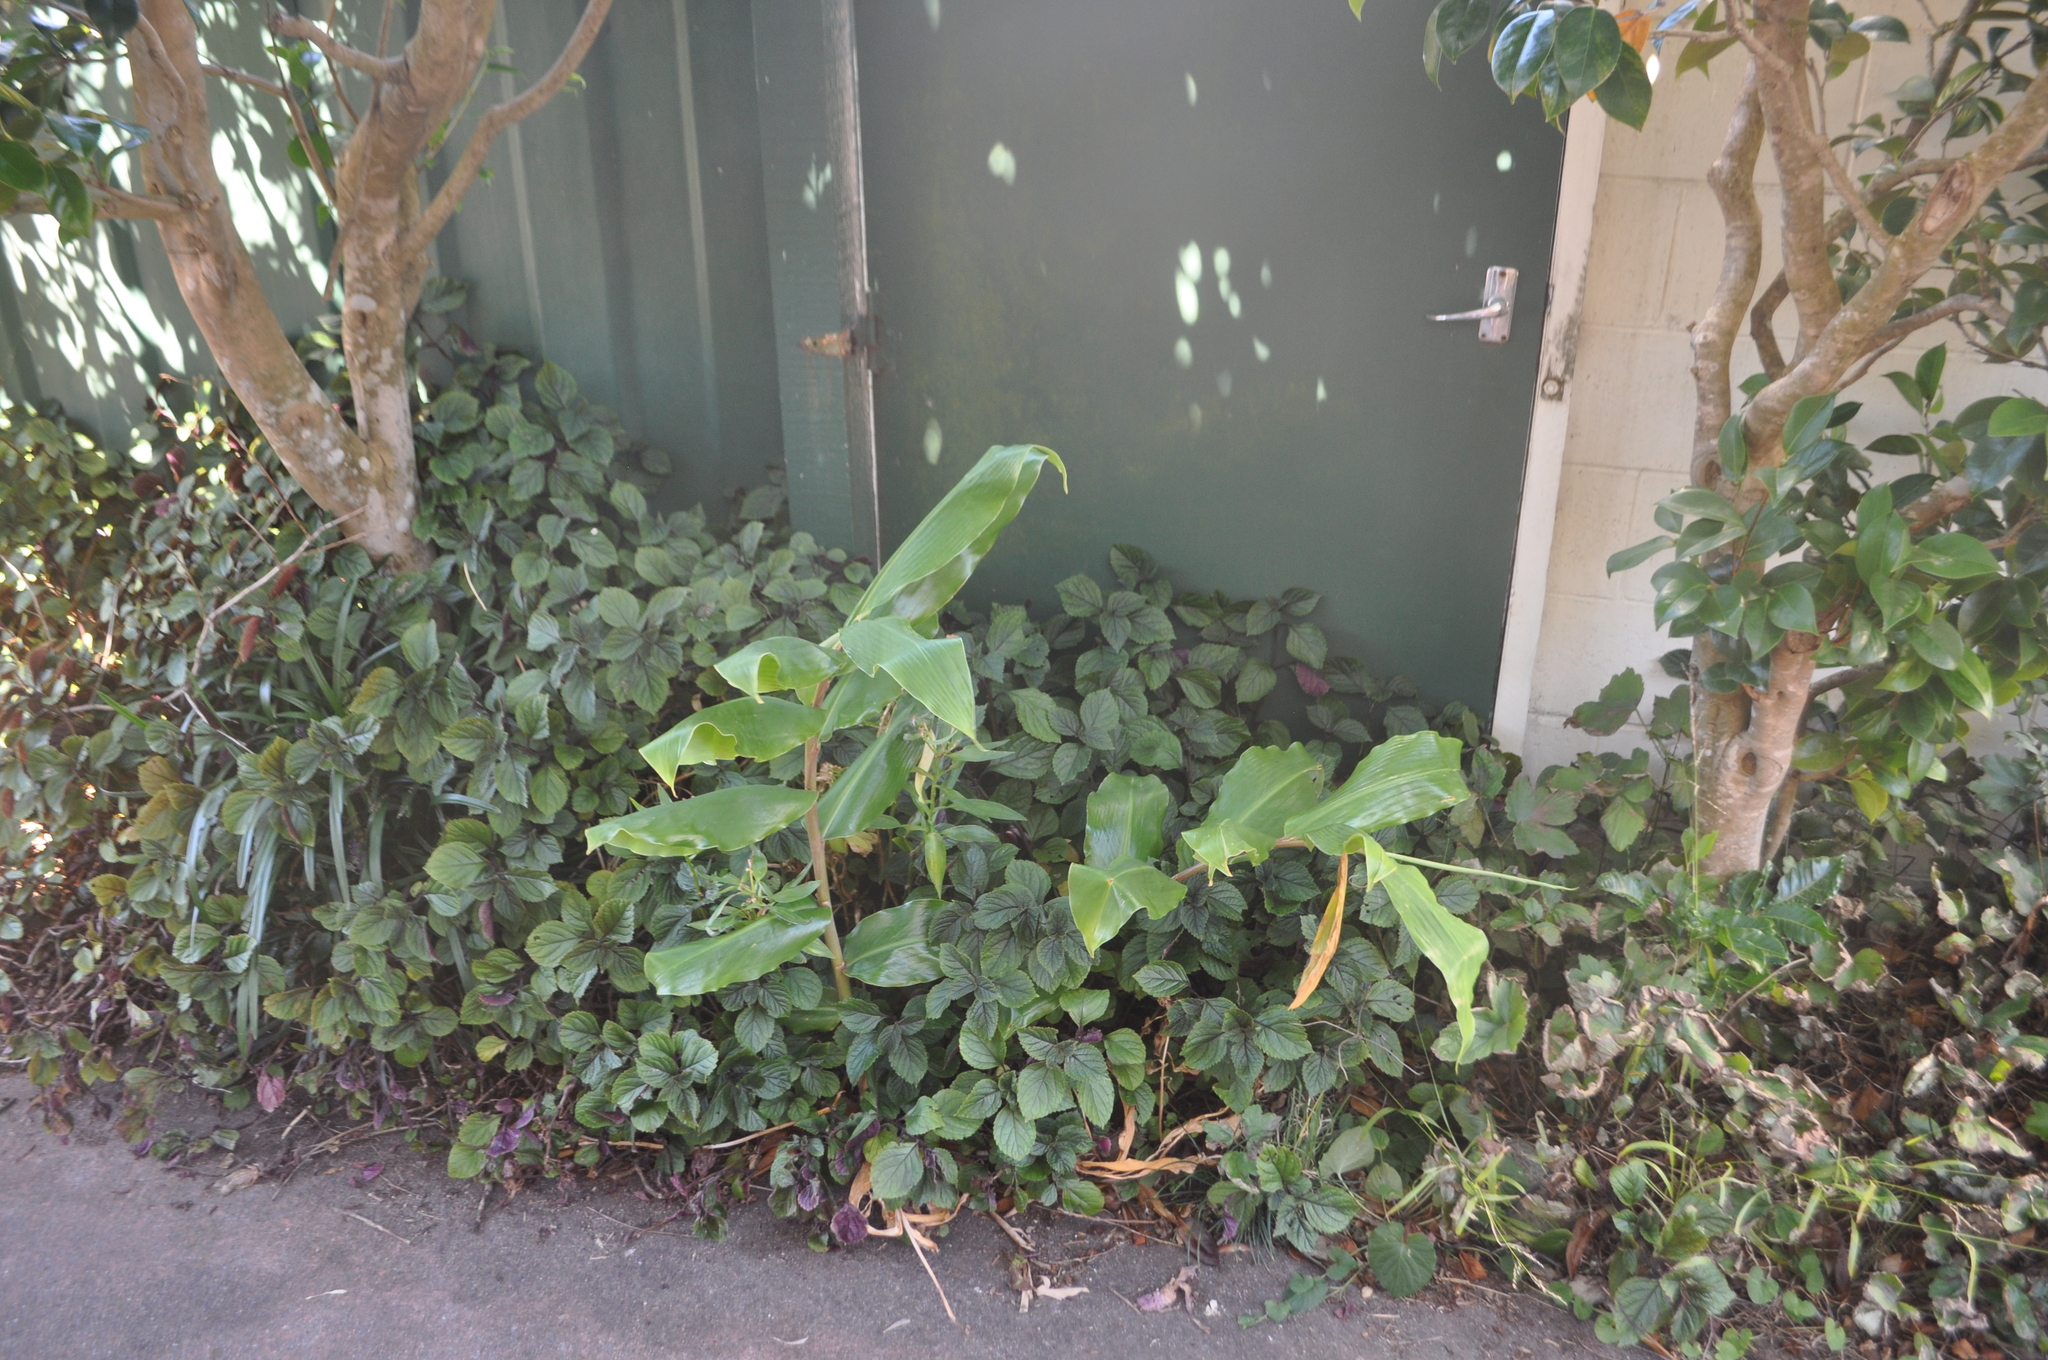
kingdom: Plantae
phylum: Tracheophyta
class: Liliopsida
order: Zingiberales
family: Zingiberaceae
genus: Hedychium
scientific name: Hedychium gardnerianum
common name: Himalayan ginger
